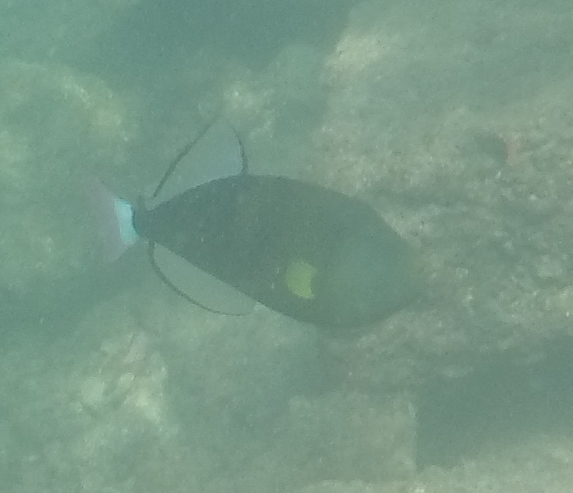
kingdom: Animalia
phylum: Chordata
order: Tetraodontiformes
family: Balistidae
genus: Melichthys
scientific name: Melichthys vidua
